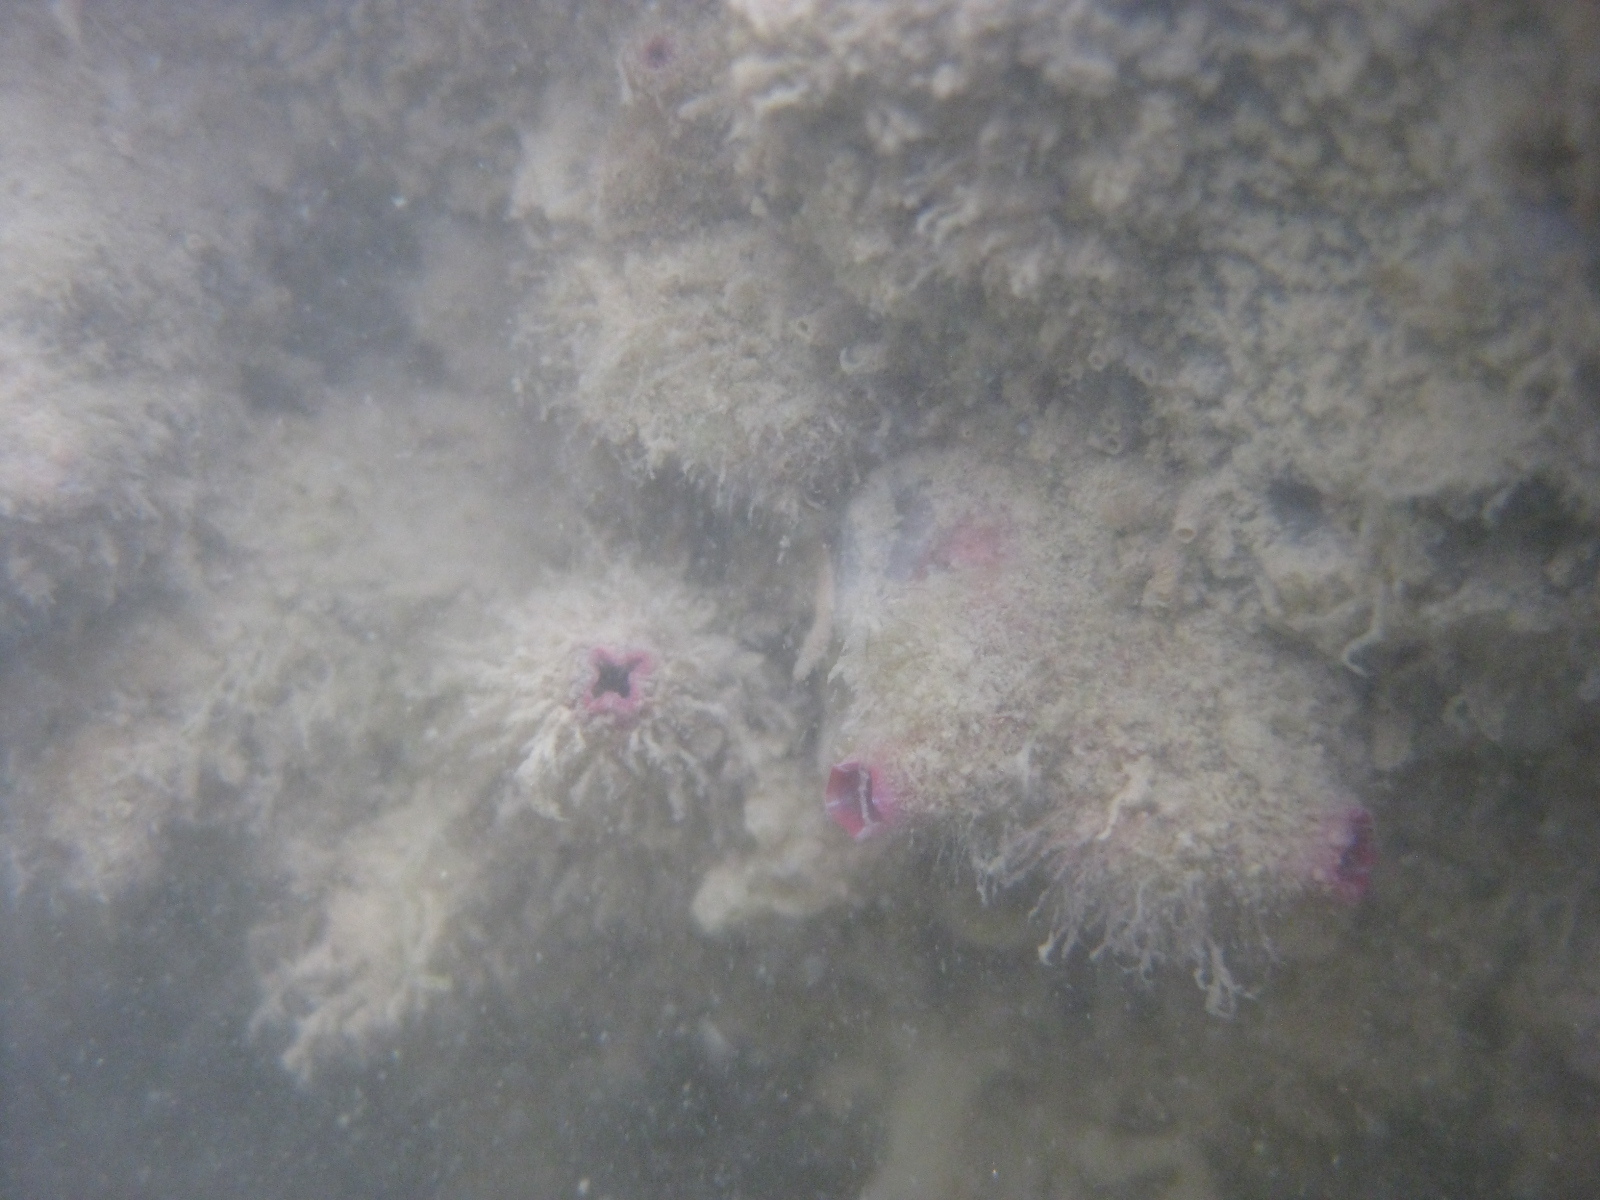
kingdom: Animalia
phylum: Chordata
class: Ascidiacea
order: Stolidobranchia
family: Styelidae
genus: Asterocarpa
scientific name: Asterocarpa humilis
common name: Compass sea squirt
